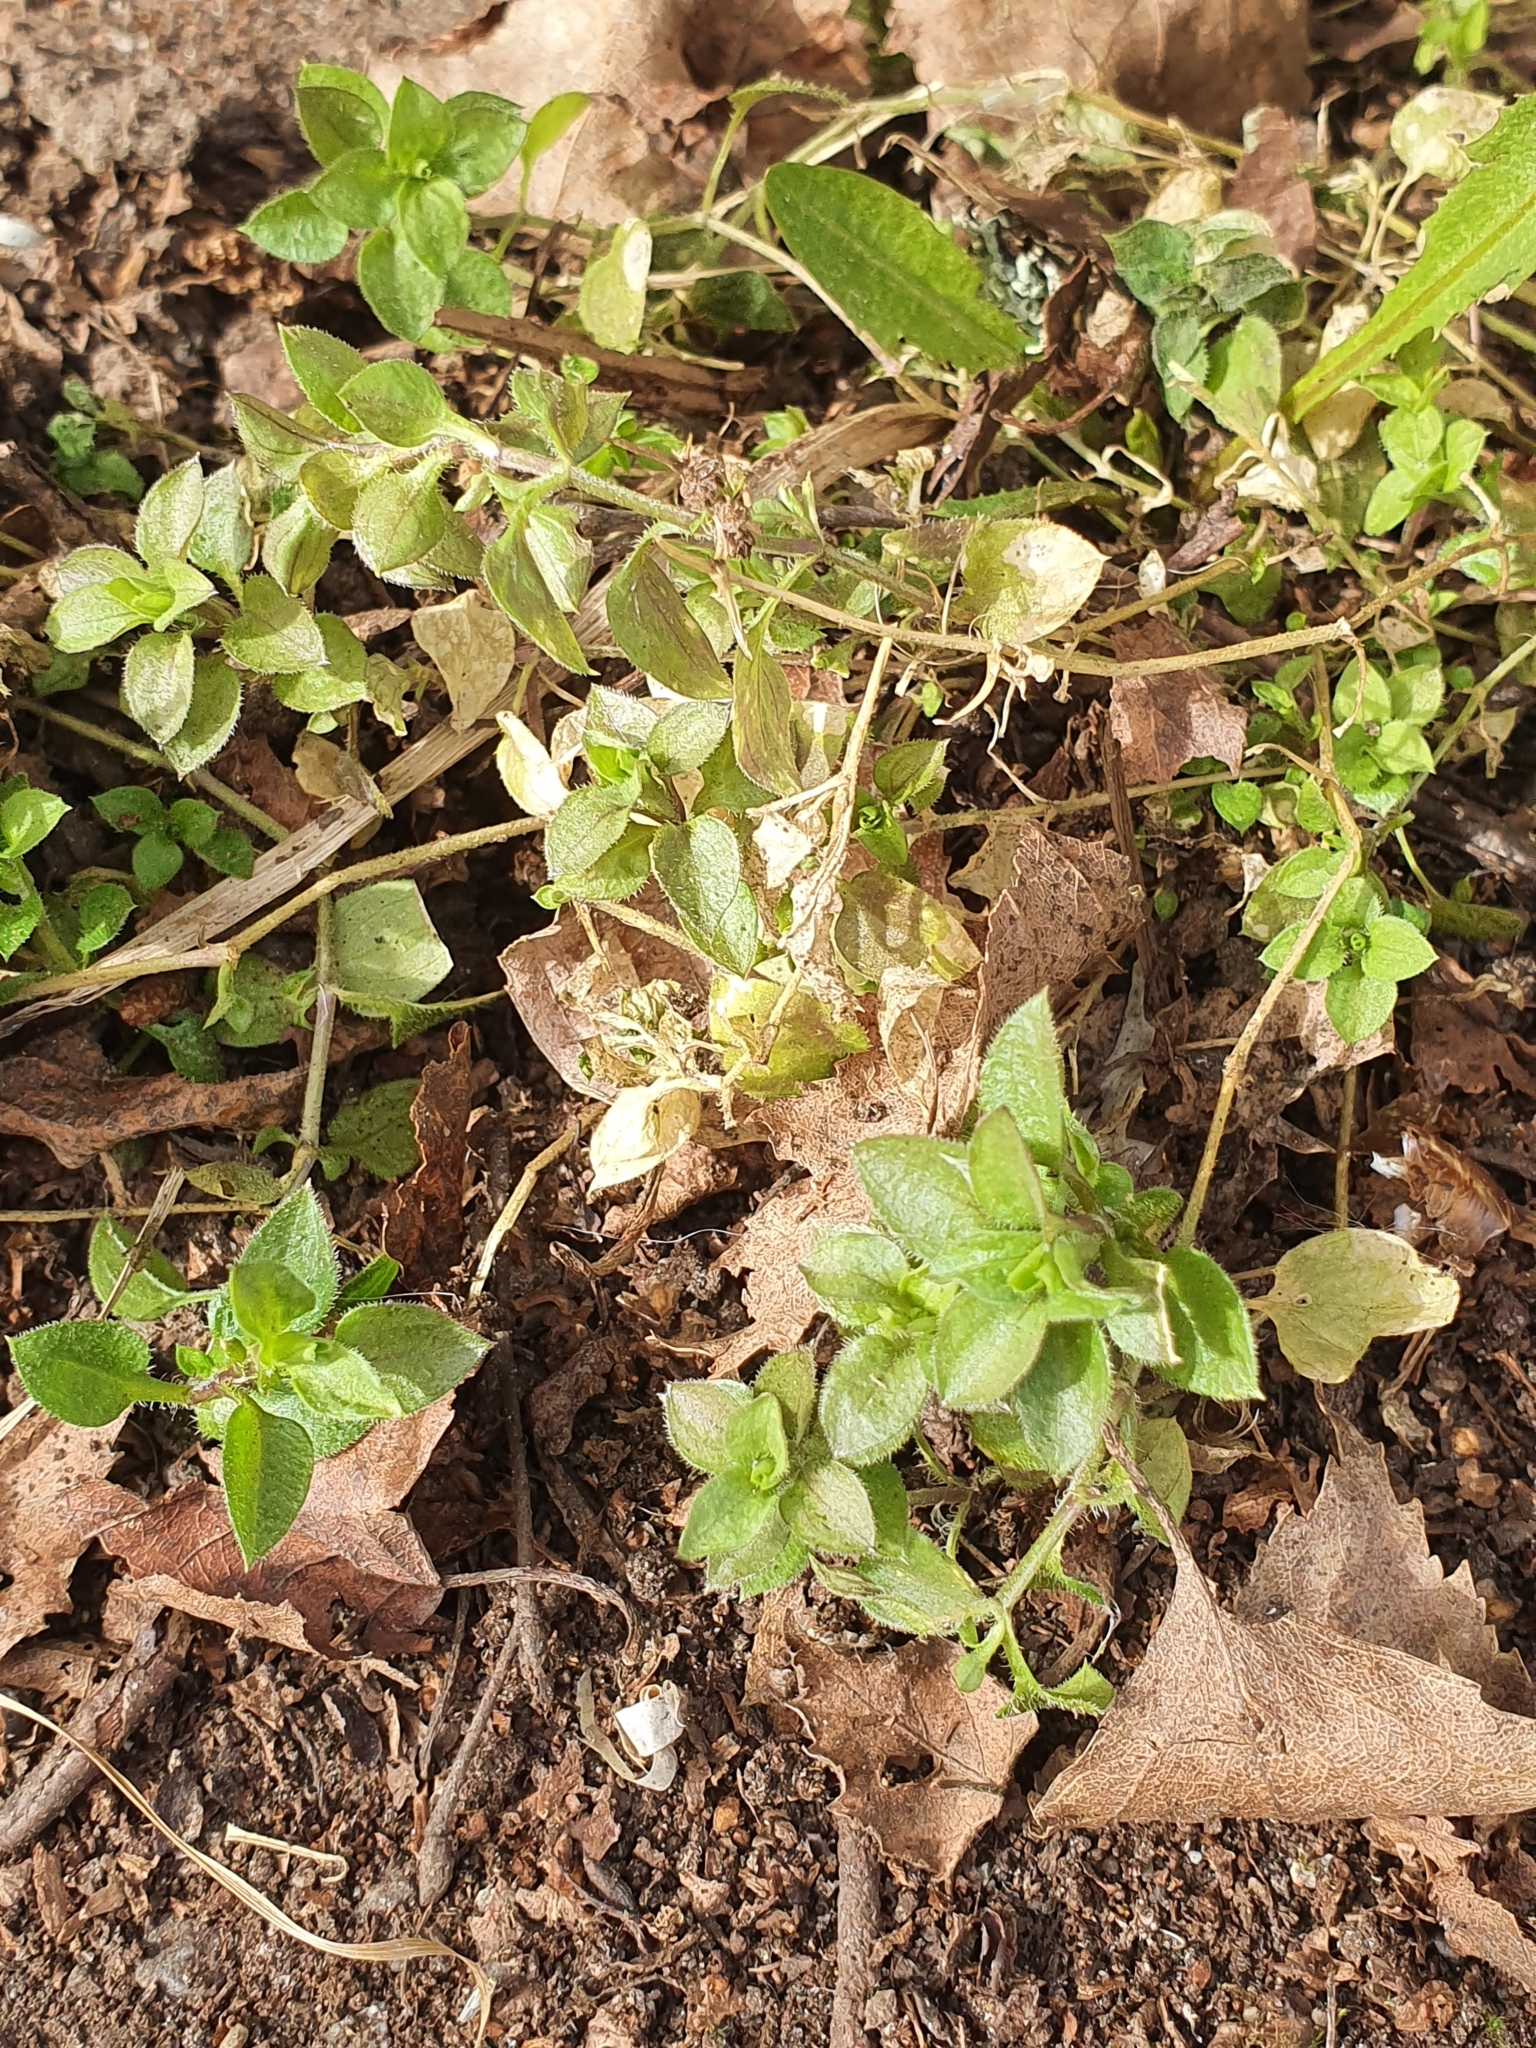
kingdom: Plantae
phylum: Tracheophyta
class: Magnoliopsida
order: Caryophyllales
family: Caryophyllaceae
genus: Stellaria
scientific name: Stellaria media
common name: Common chickweed
